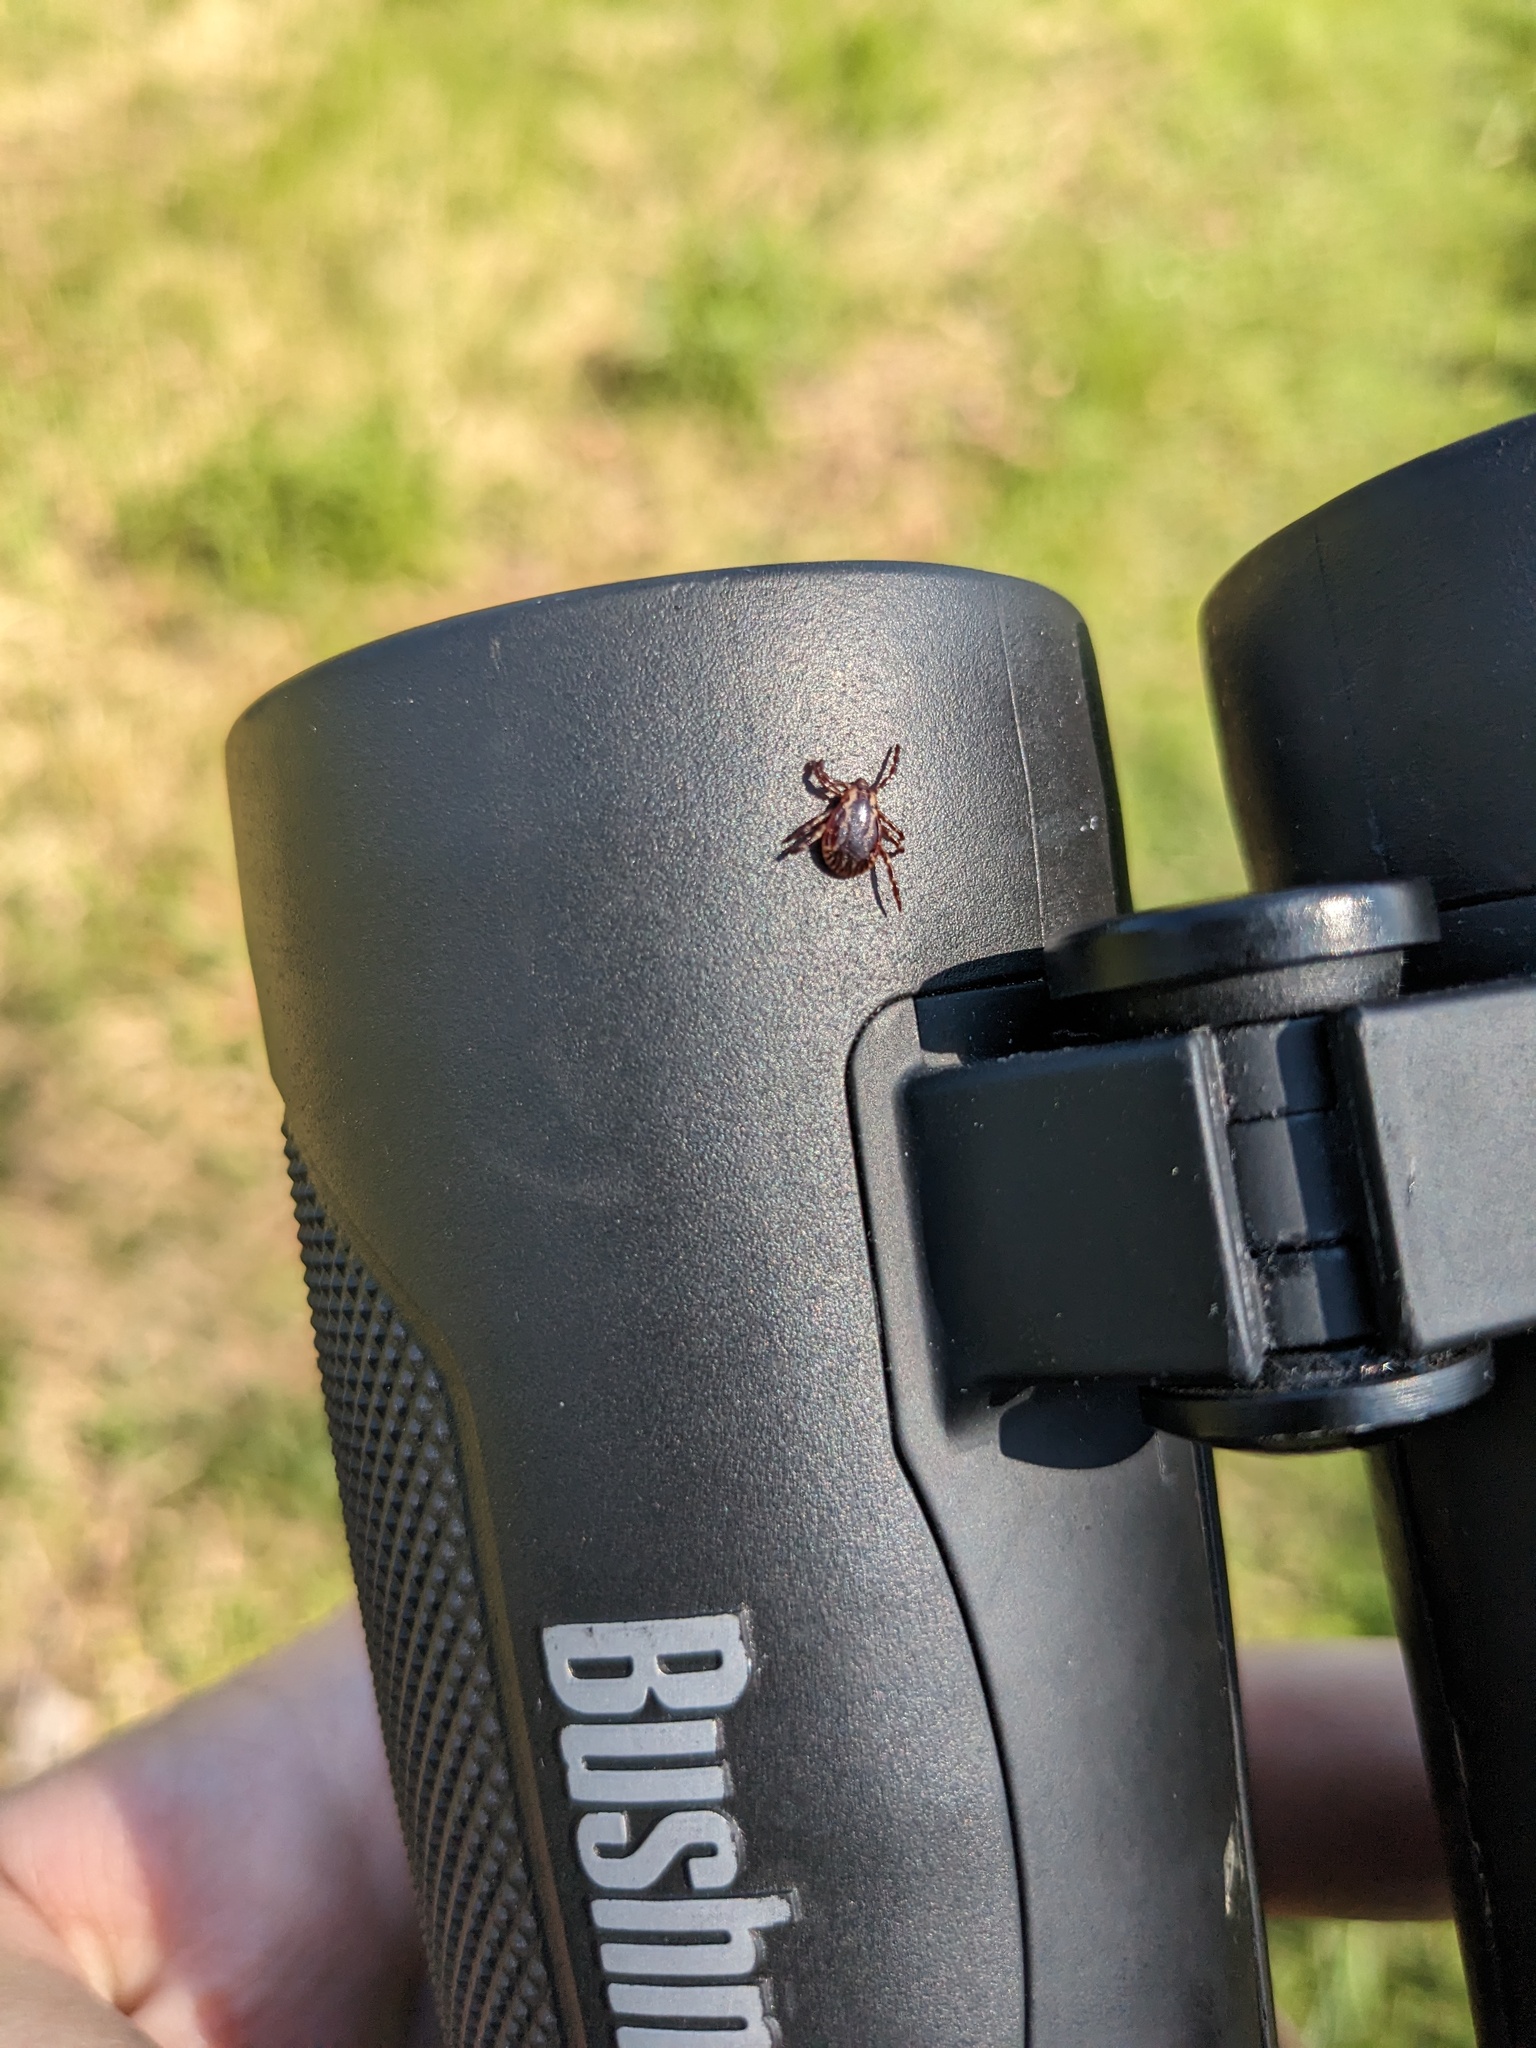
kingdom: Animalia
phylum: Arthropoda
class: Arachnida
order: Ixodida
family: Ixodidae
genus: Dermacentor
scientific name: Dermacentor variabilis
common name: American dog tick
